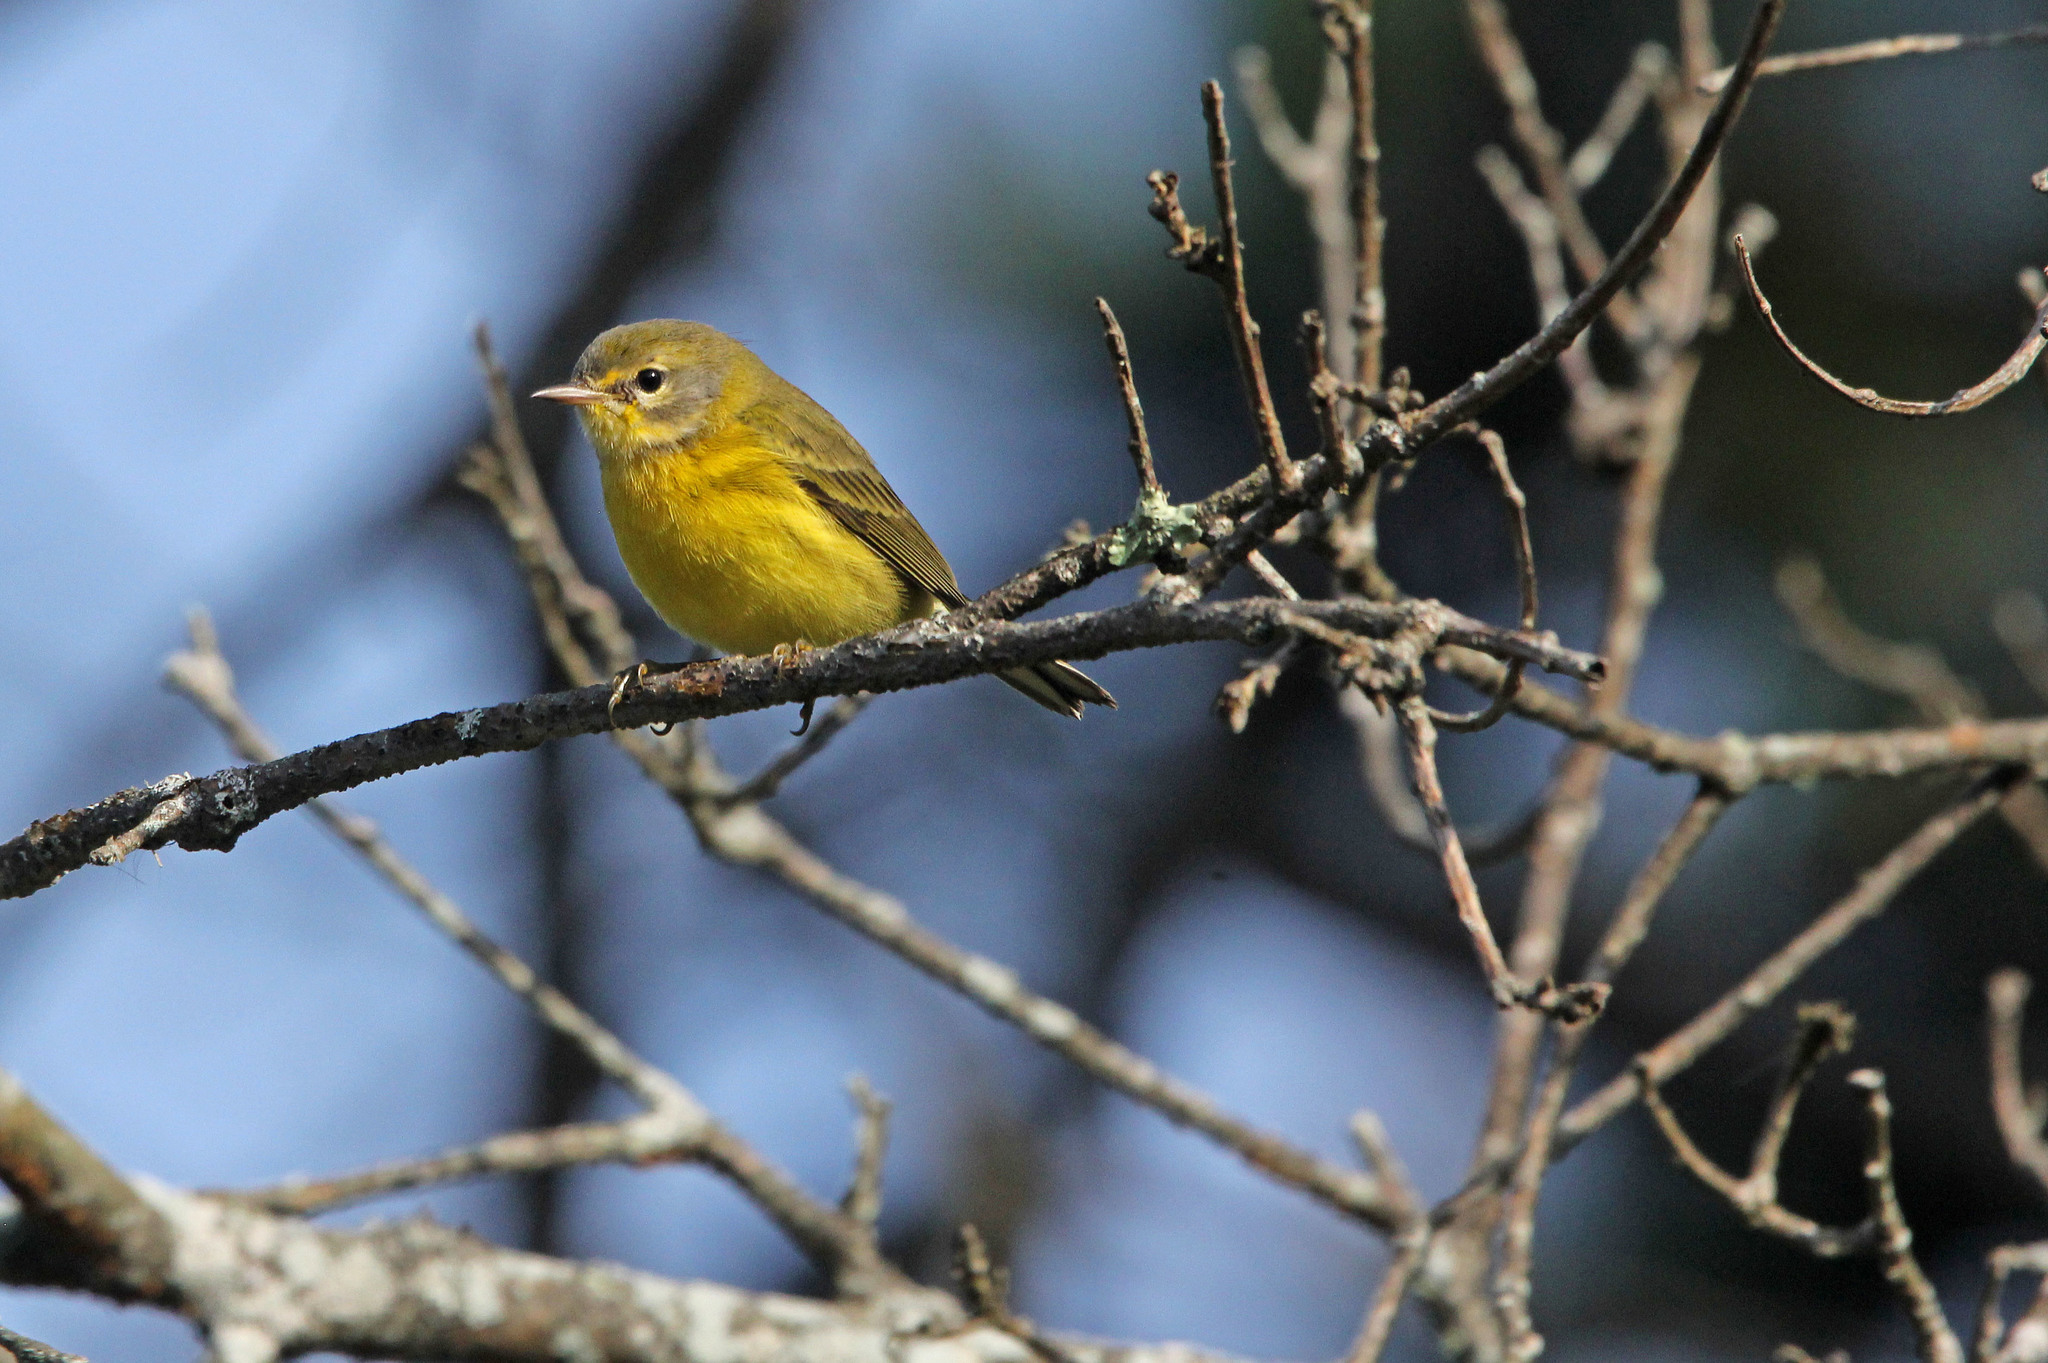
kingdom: Animalia
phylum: Chordata
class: Aves
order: Passeriformes
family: Parulidae
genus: Setophaga
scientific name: Setophaga discolor
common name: Prairie warbler
